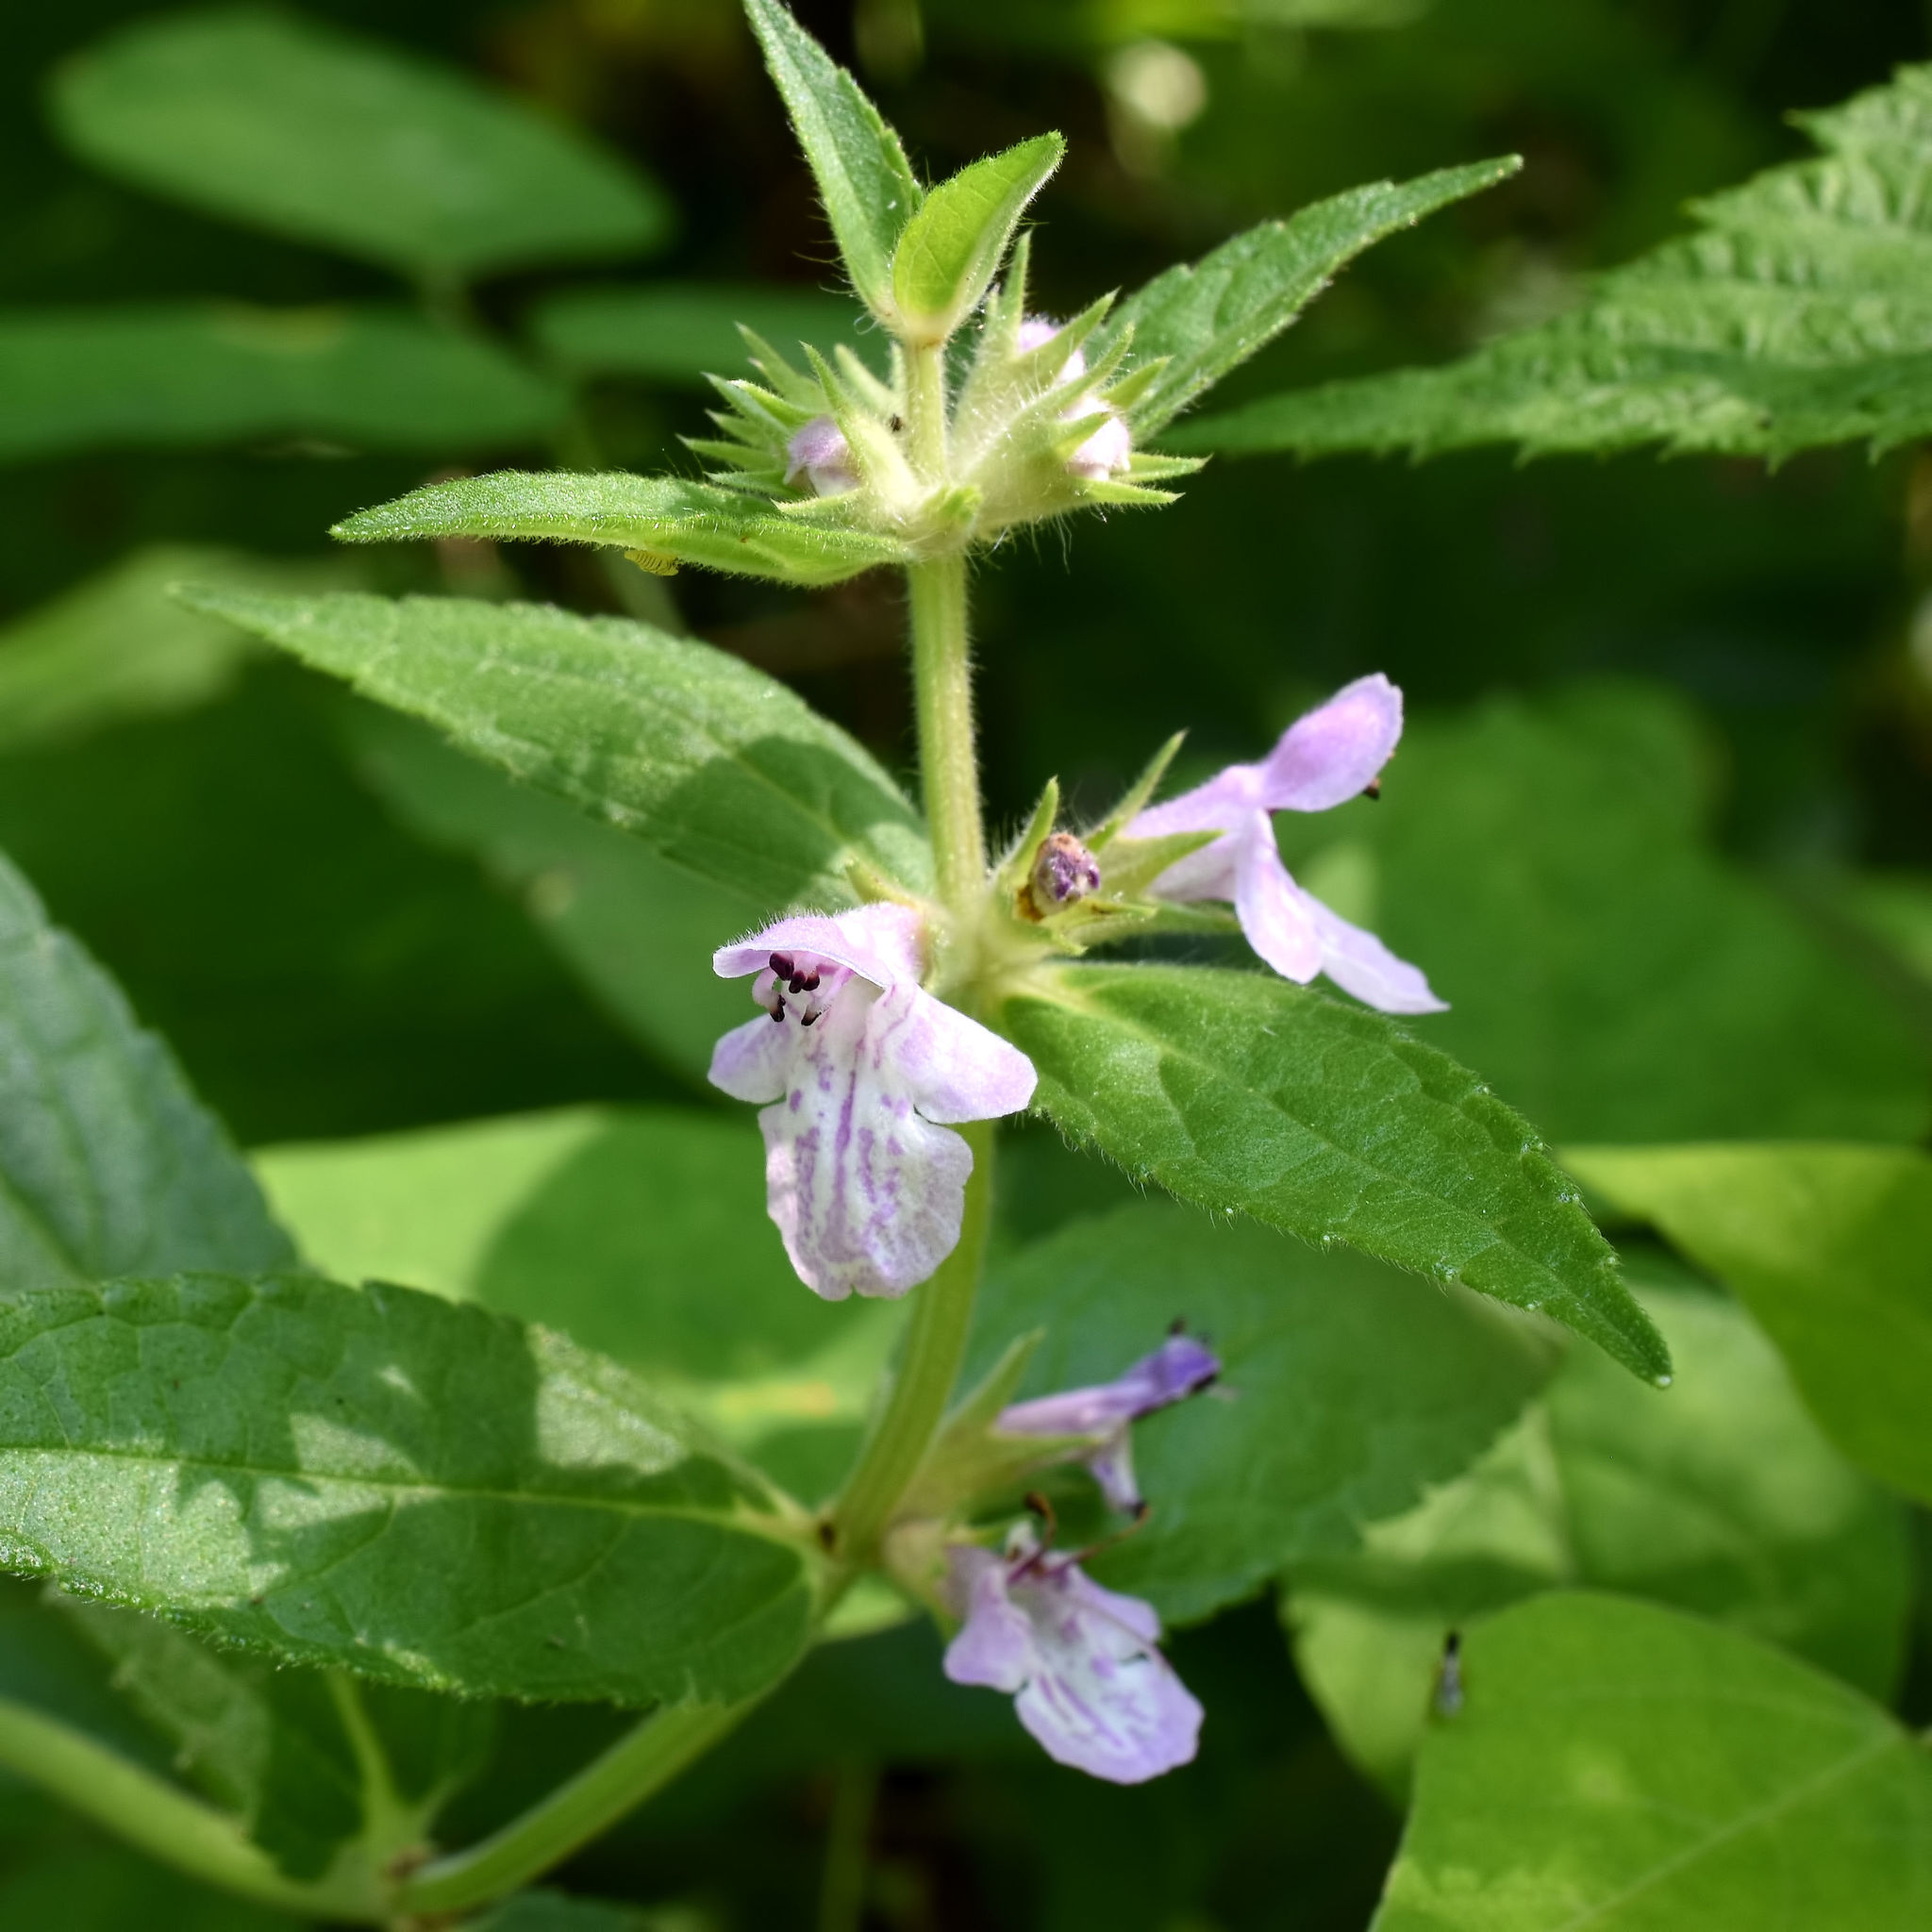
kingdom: Plantae
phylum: Tracheophyta
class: Magnoliopsida
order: Lamiales
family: Lamiaceae
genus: Stachys
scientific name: Stachys palustris
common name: Marsh woundwort
